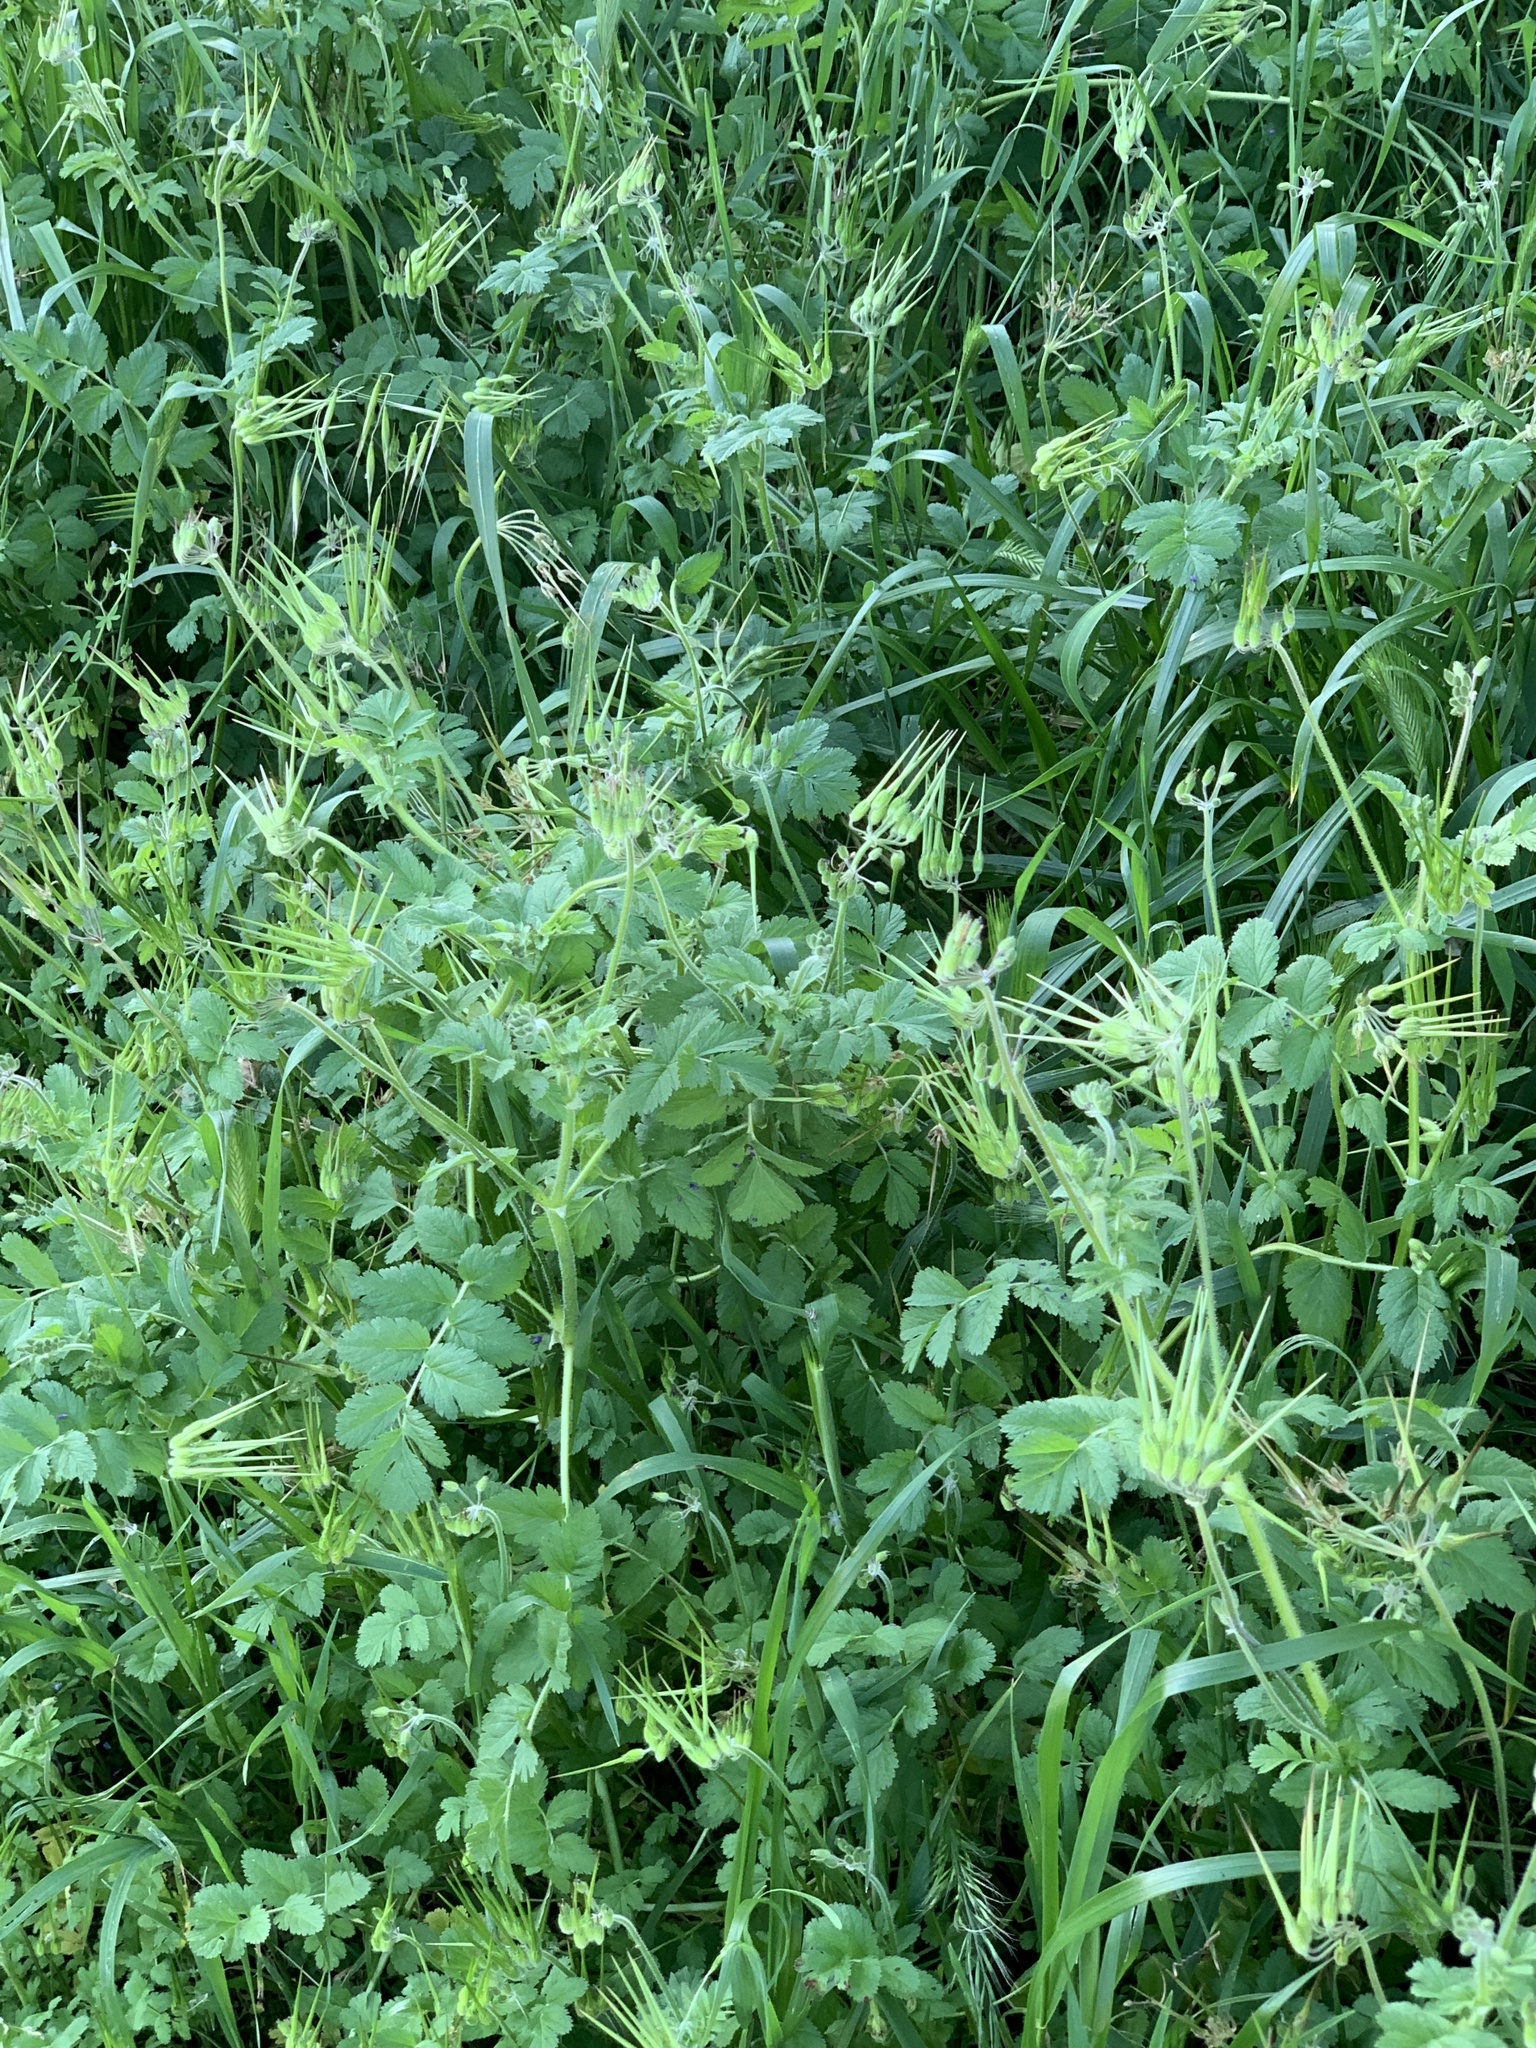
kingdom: Plantae
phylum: Tracheophyta
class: Magnoliopsida
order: Geraniales
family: Geraniaceae
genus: Erodium
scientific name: Erodium moschatum
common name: Musk stork's-bill
